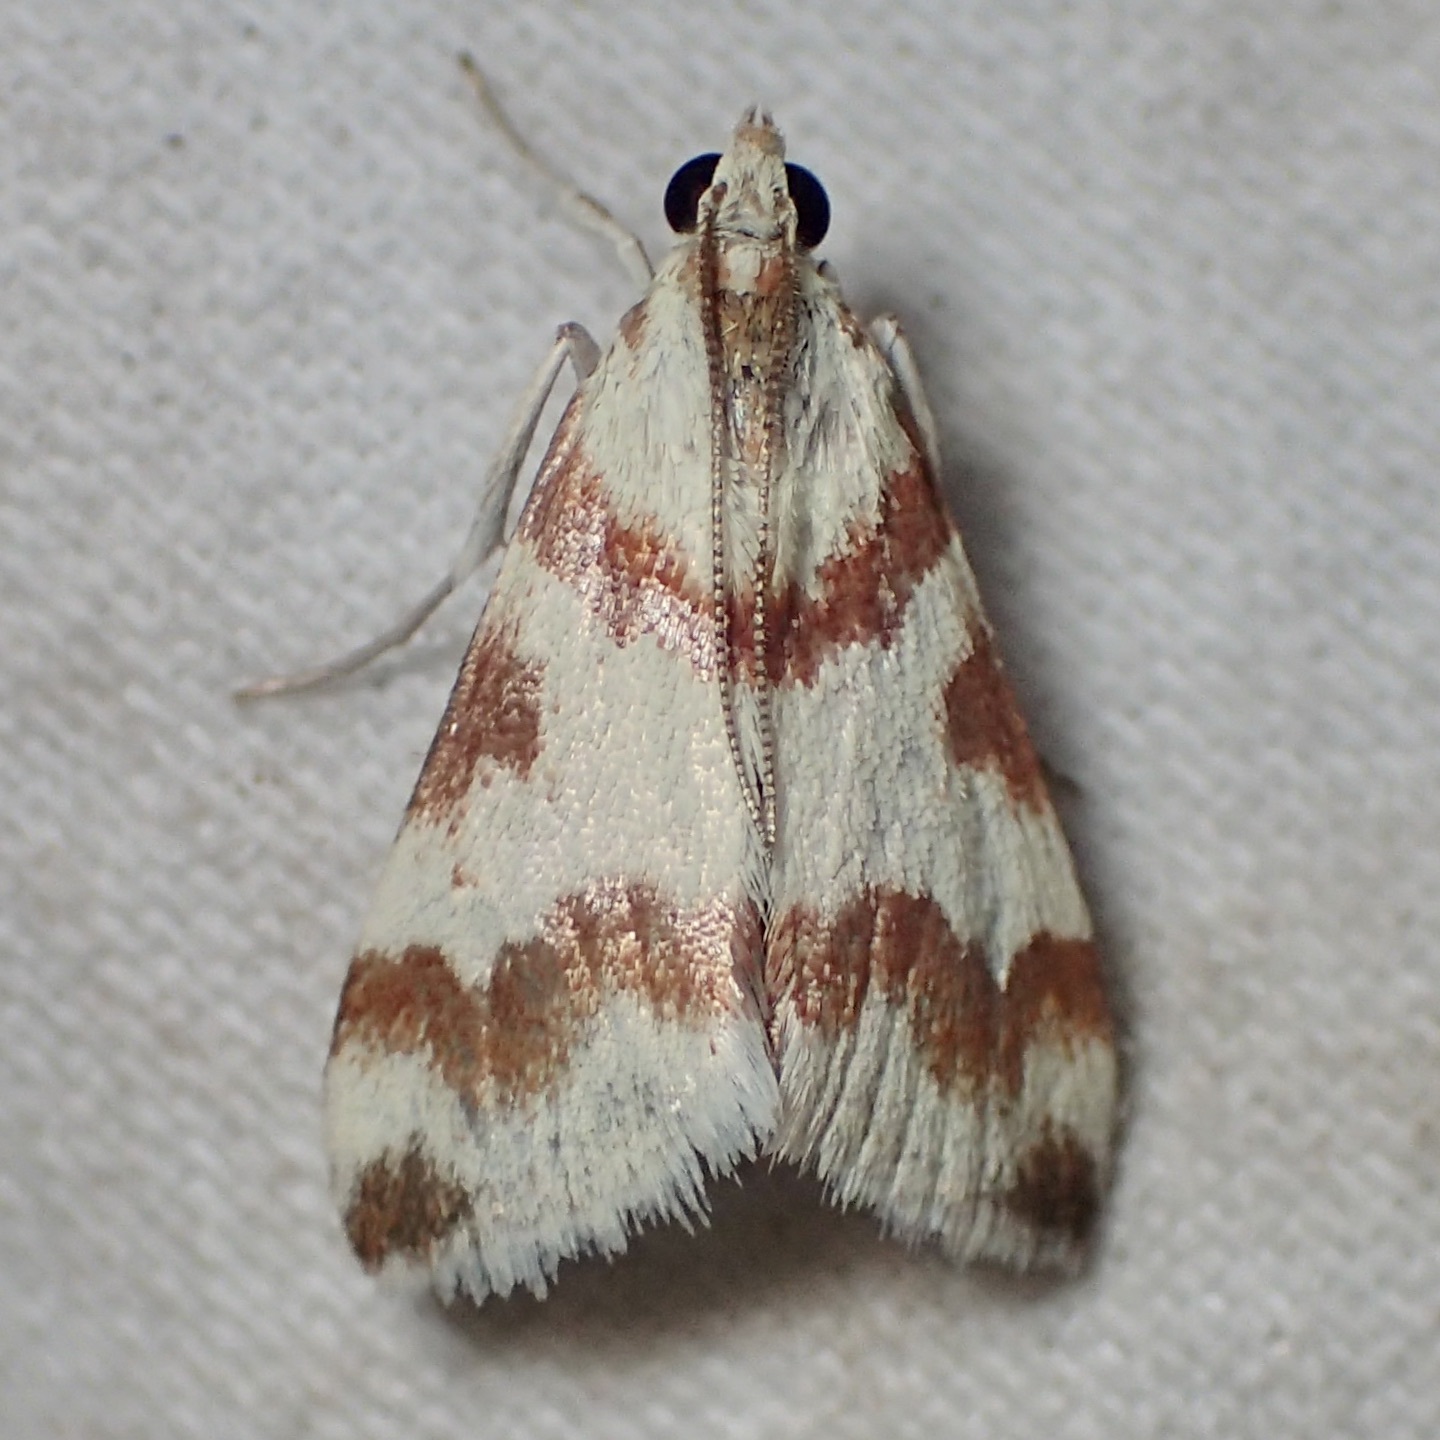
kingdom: Animalia
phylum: Arthropoda
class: Insecta
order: Lepidoptera
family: Crambidae
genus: Noctuelia
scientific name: Noctuelia Mimoschinia rufofascialis
